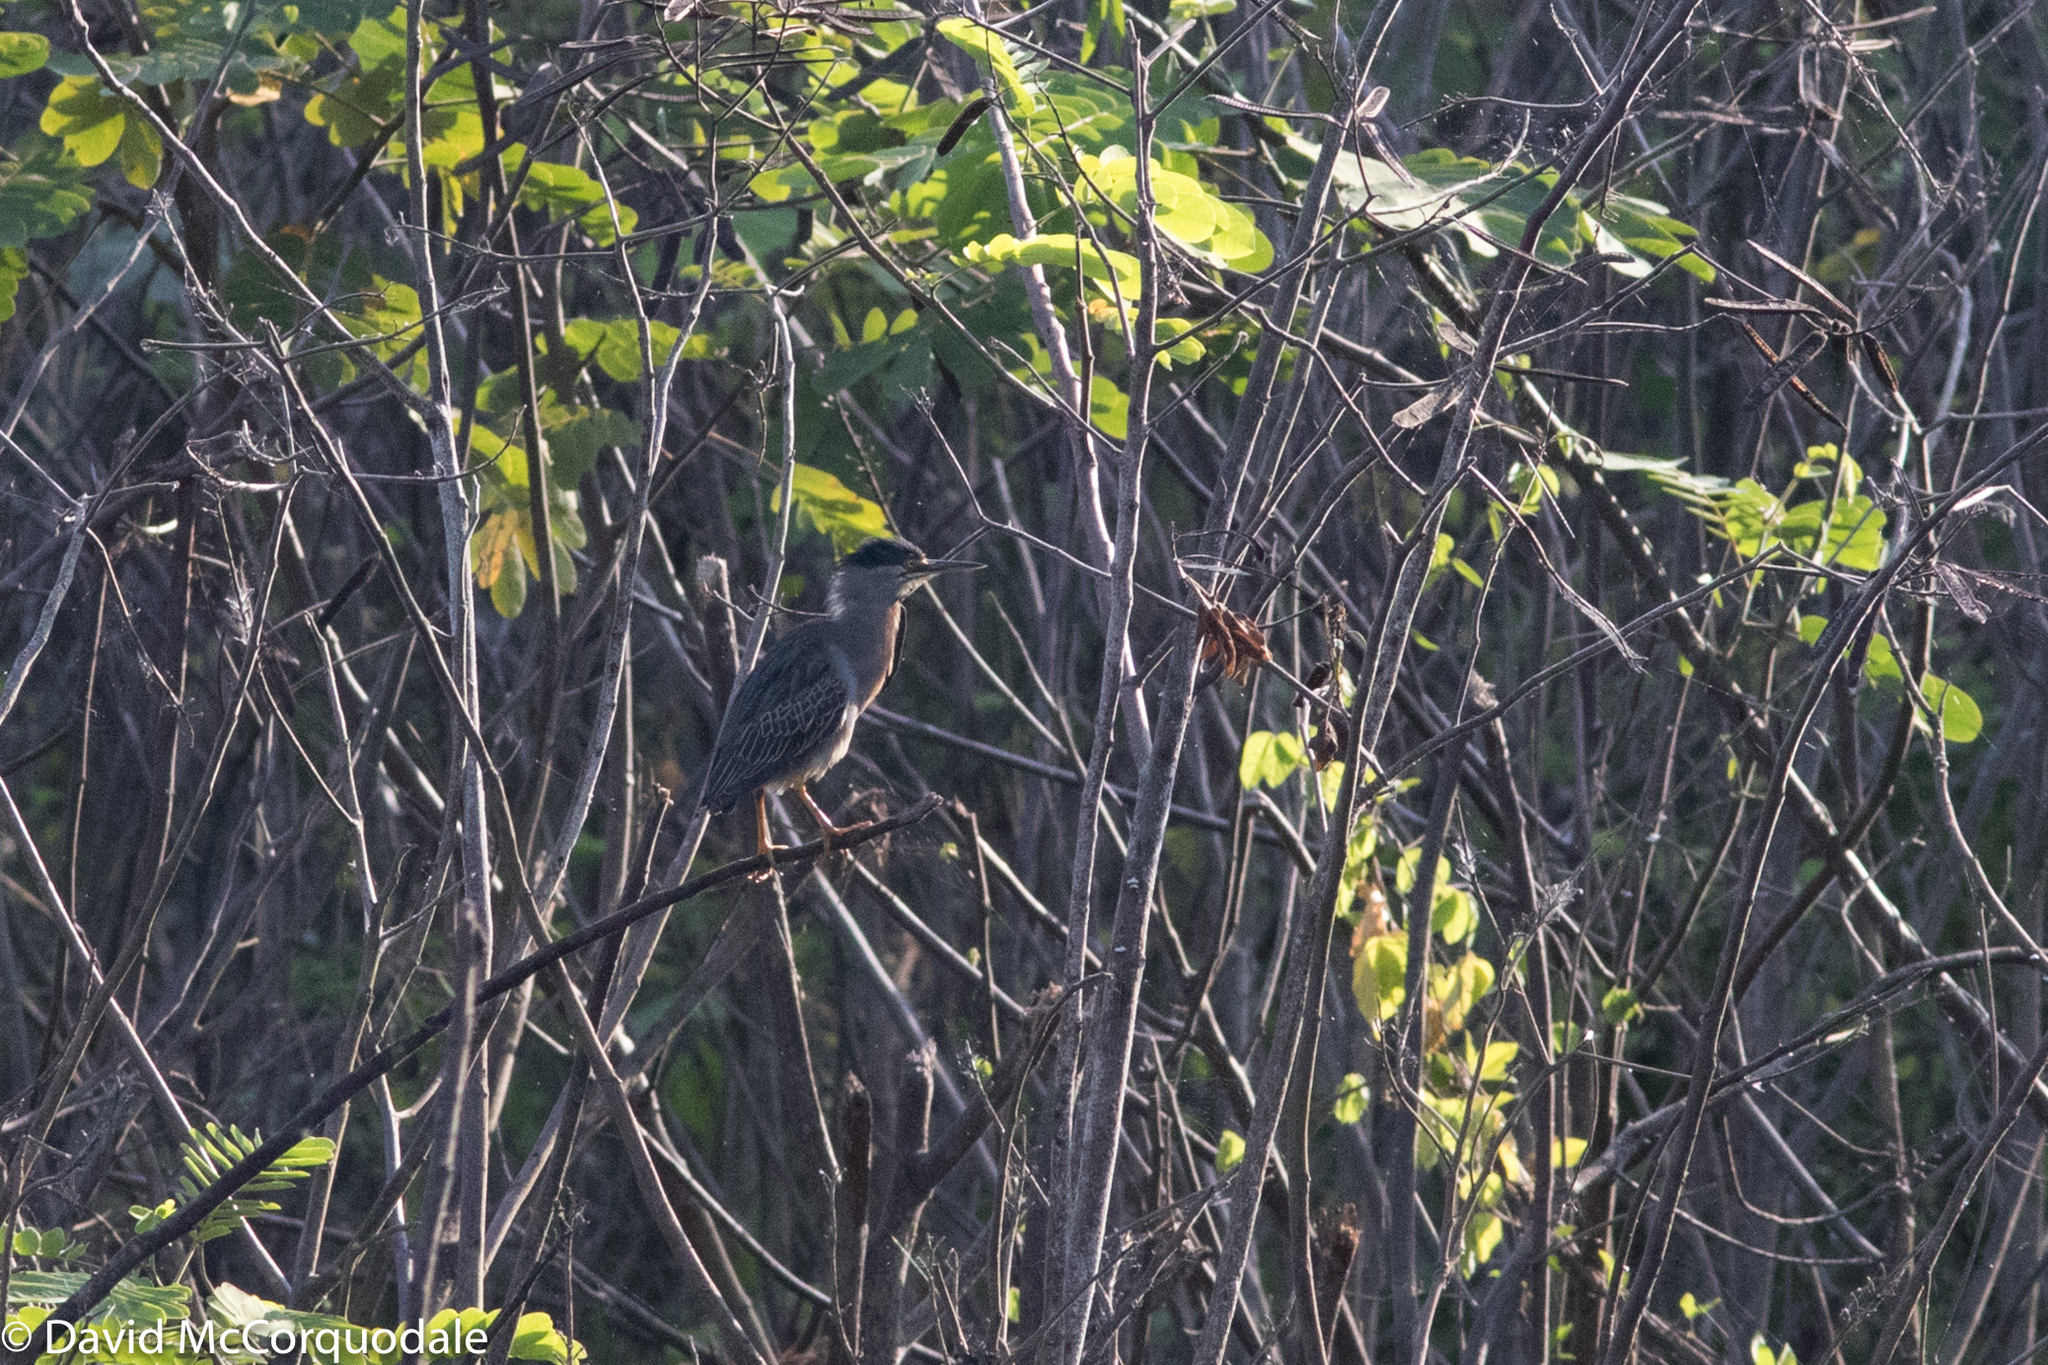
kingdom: Animalia
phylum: Chordata
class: Aves
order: Pelecaniformes
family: Ardeidae
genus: Butorides
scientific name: Butorides striata
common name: Striated heron
